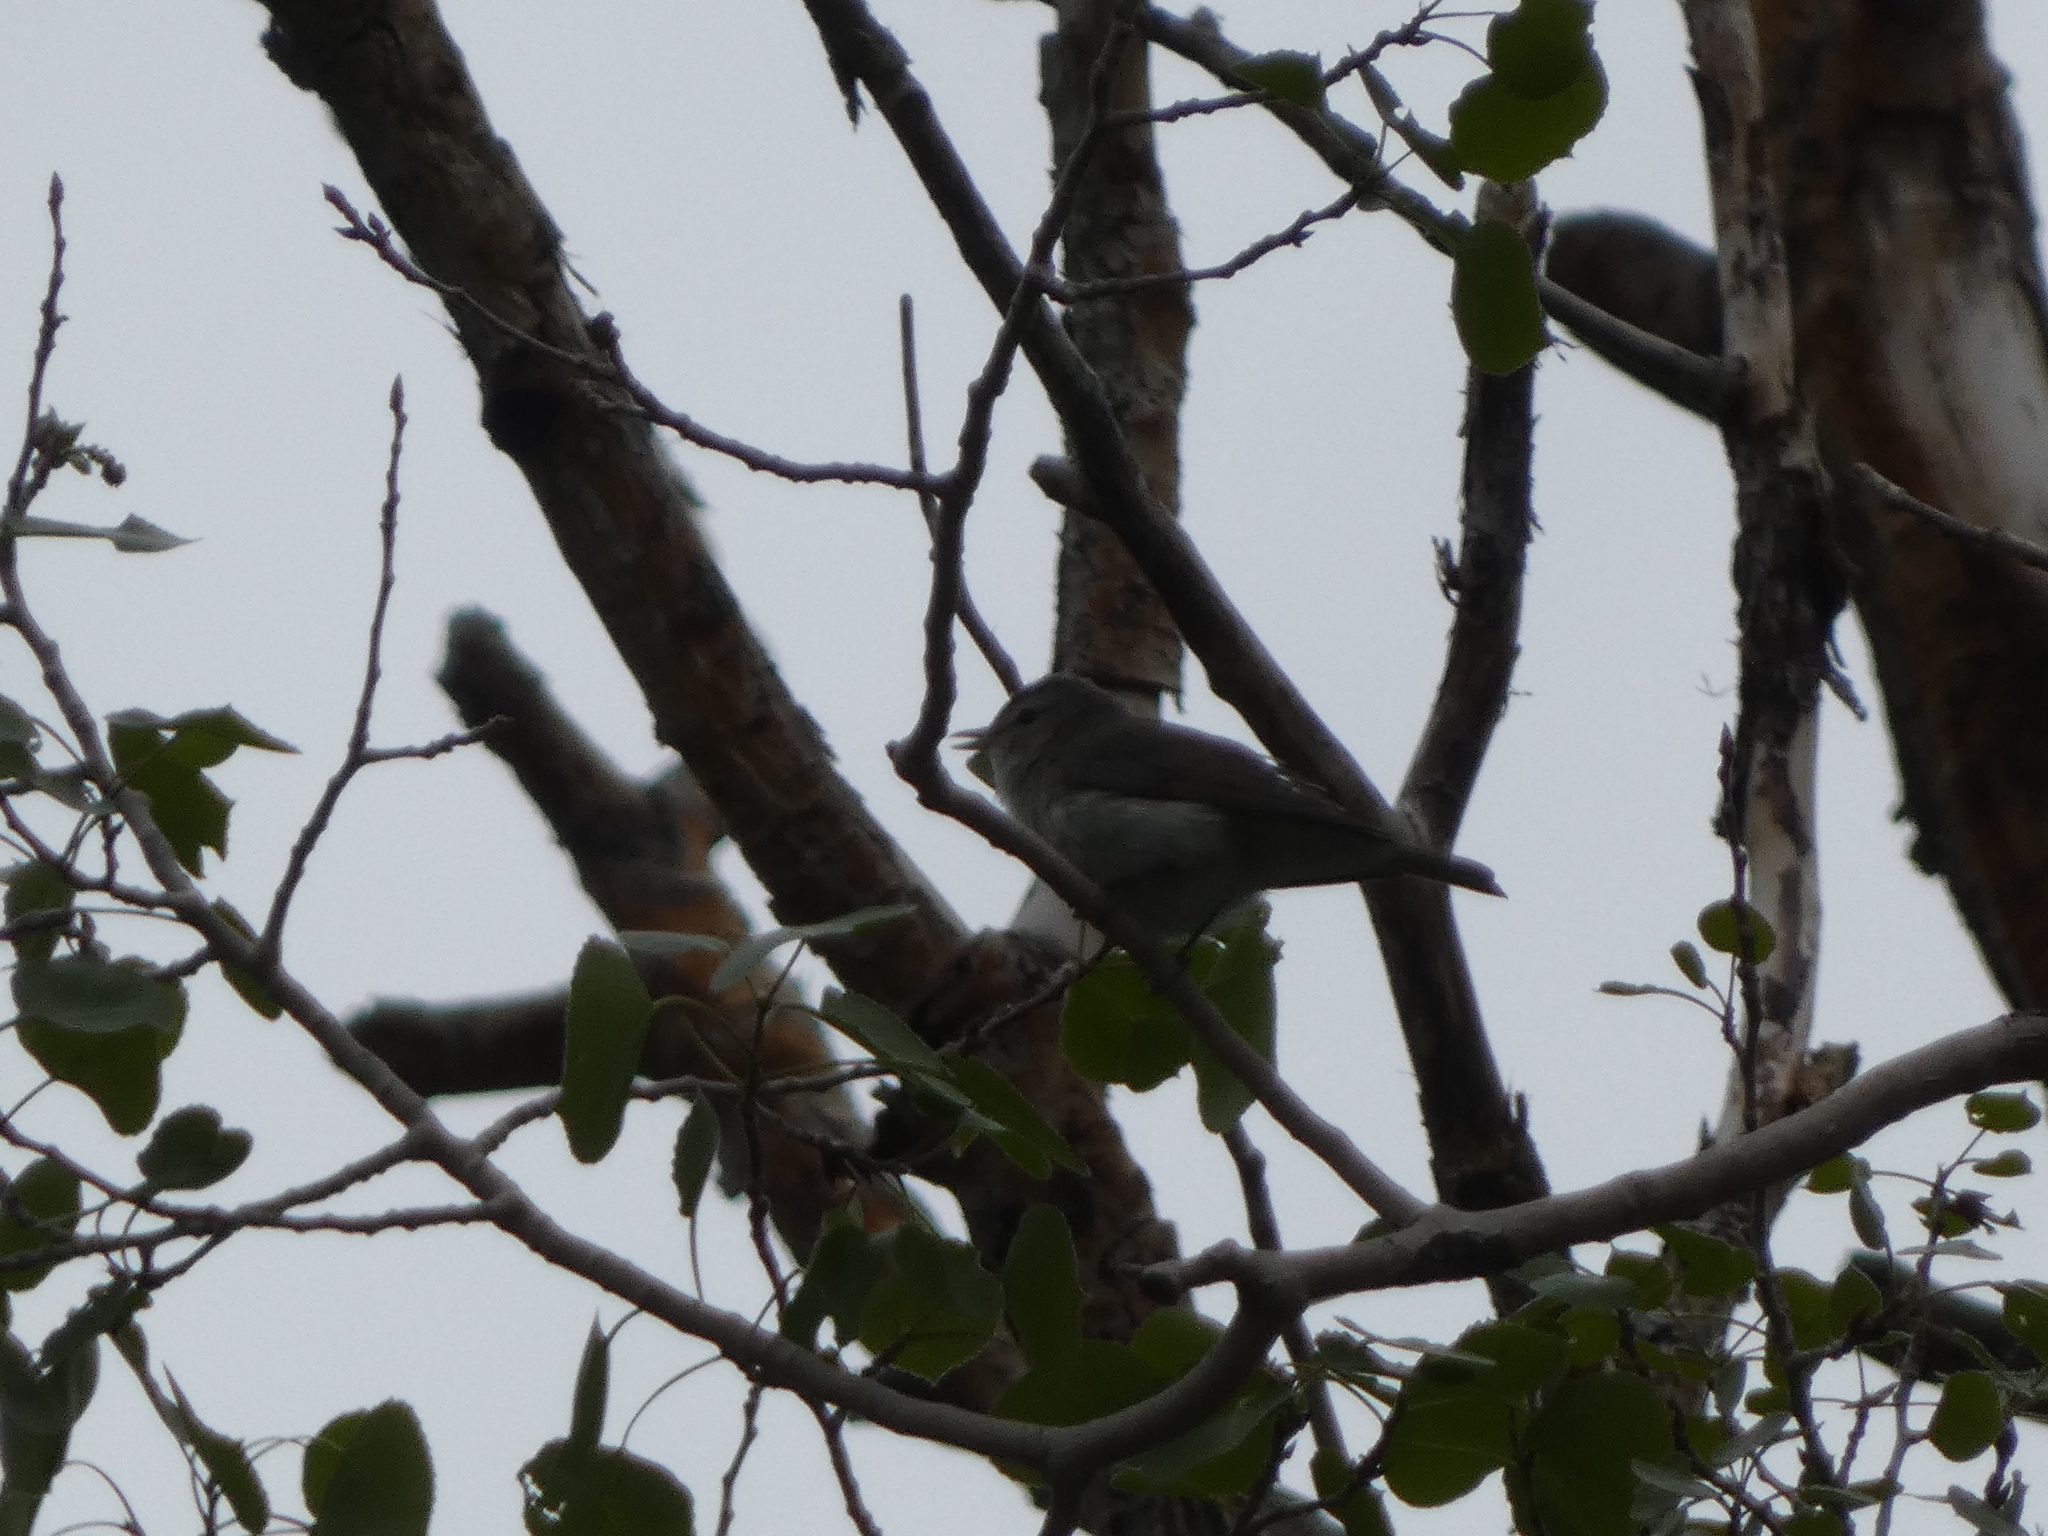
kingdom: Animalia
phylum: Chordata
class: Aves
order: Passeriformes
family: Vireonidae
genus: Vireo
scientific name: Vireo gilvus
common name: Warbling vireo
